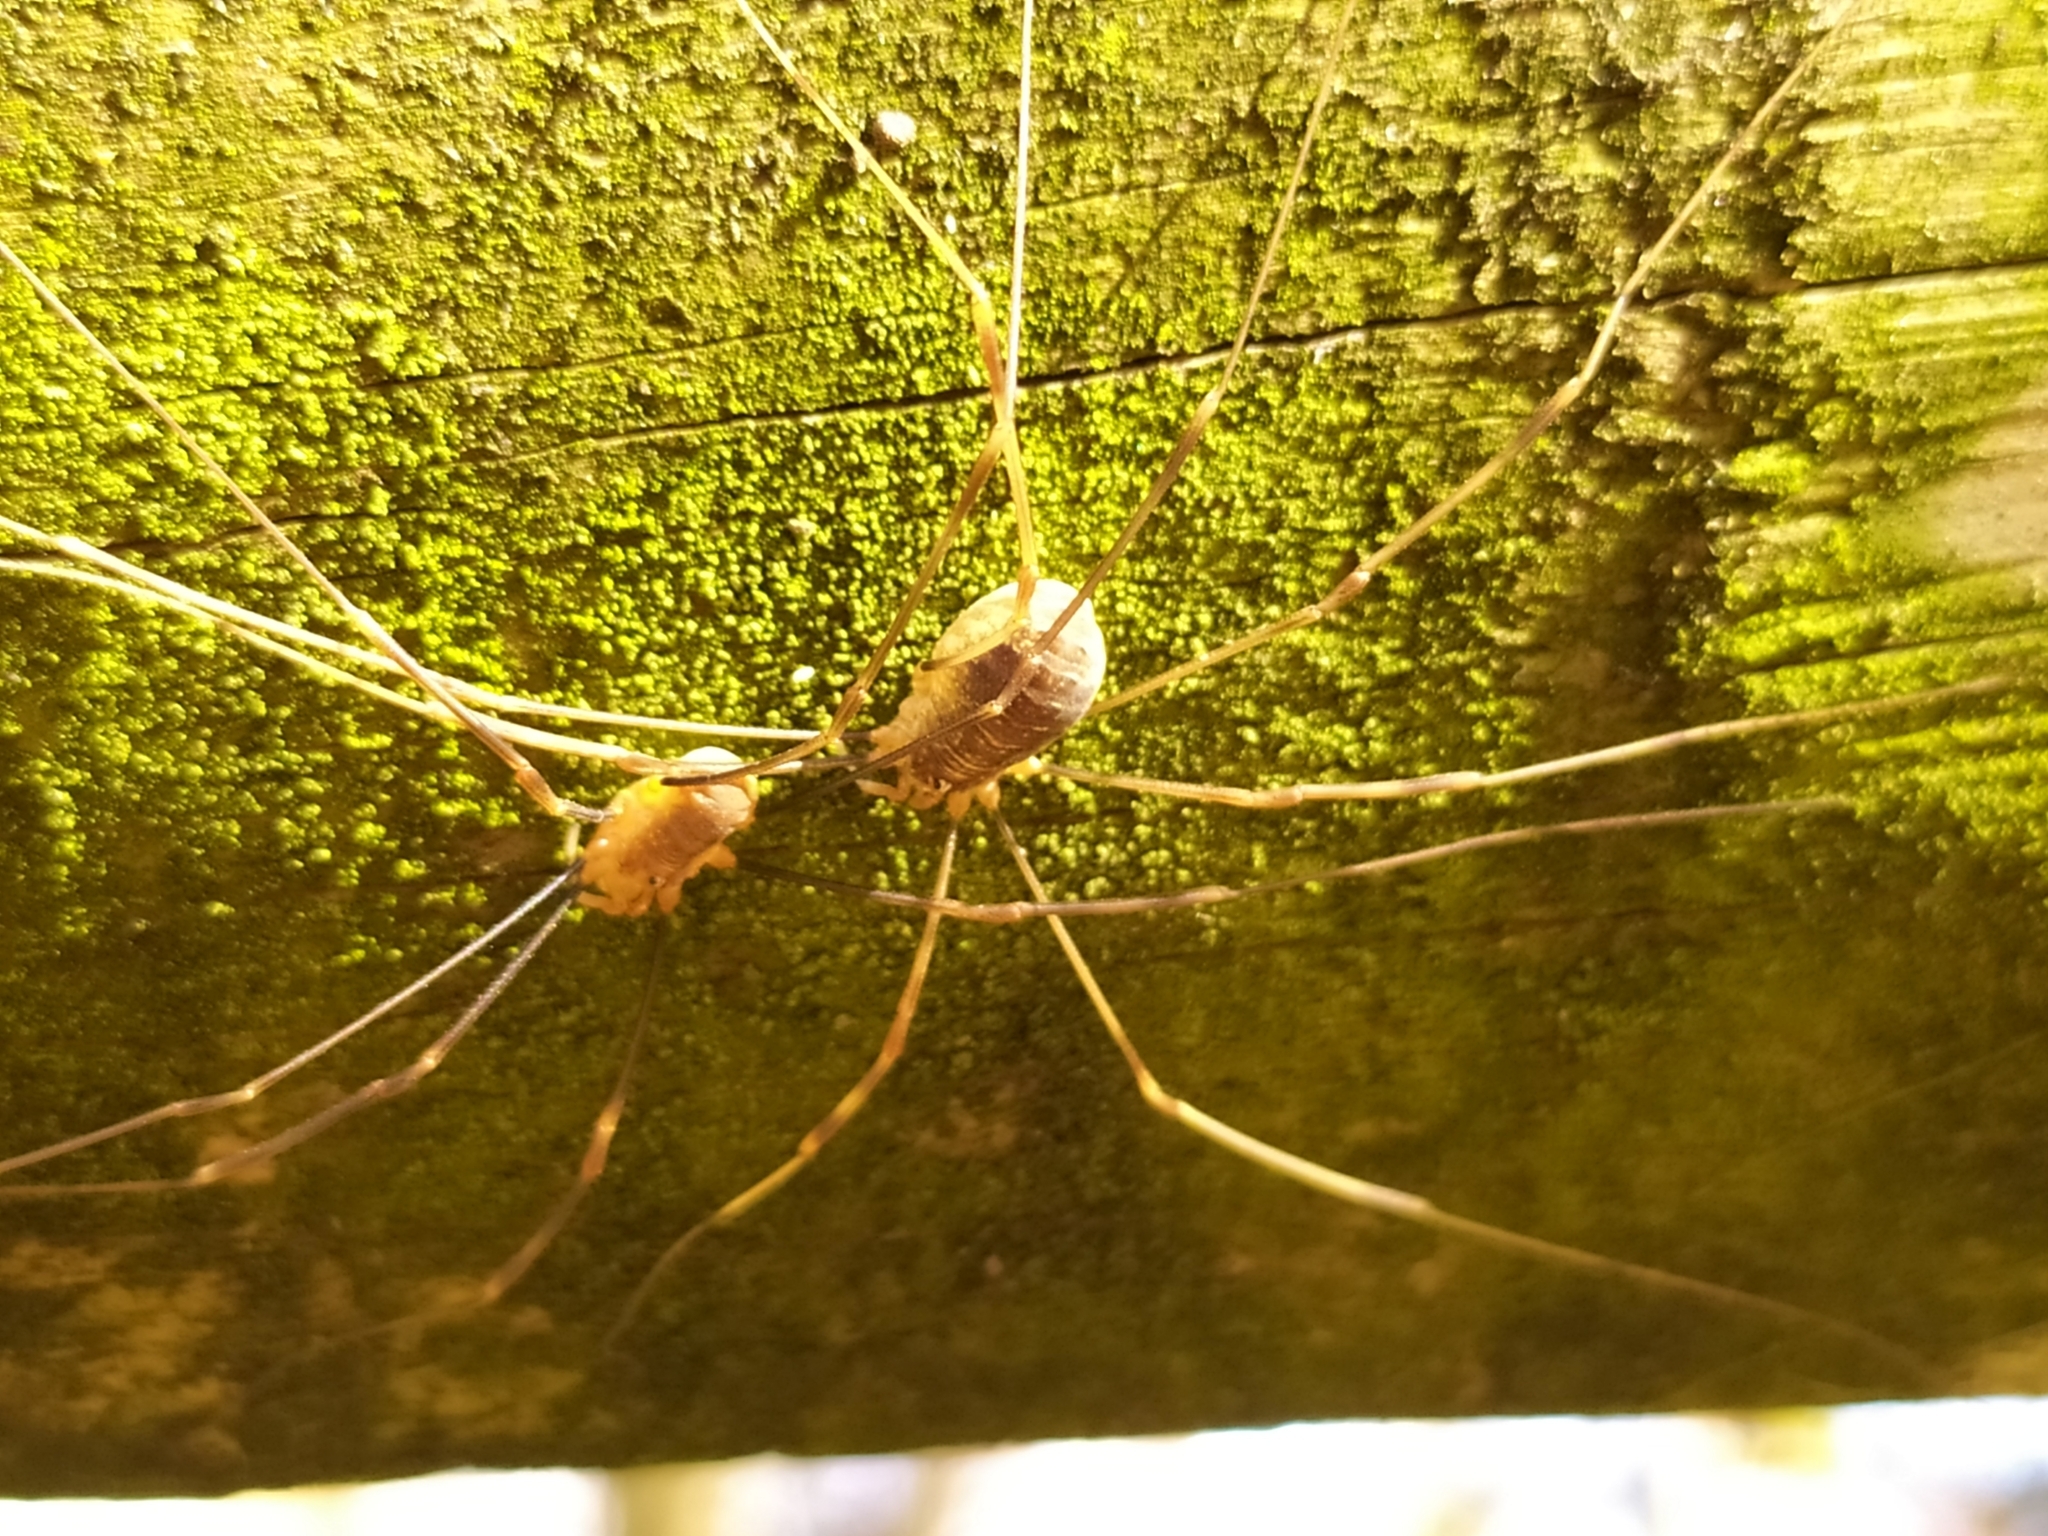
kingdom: Animalia
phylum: Arthropoda
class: Arachnida
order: Opiliones
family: Phalangiidae
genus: Opilio
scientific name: Opilio canestrinii
